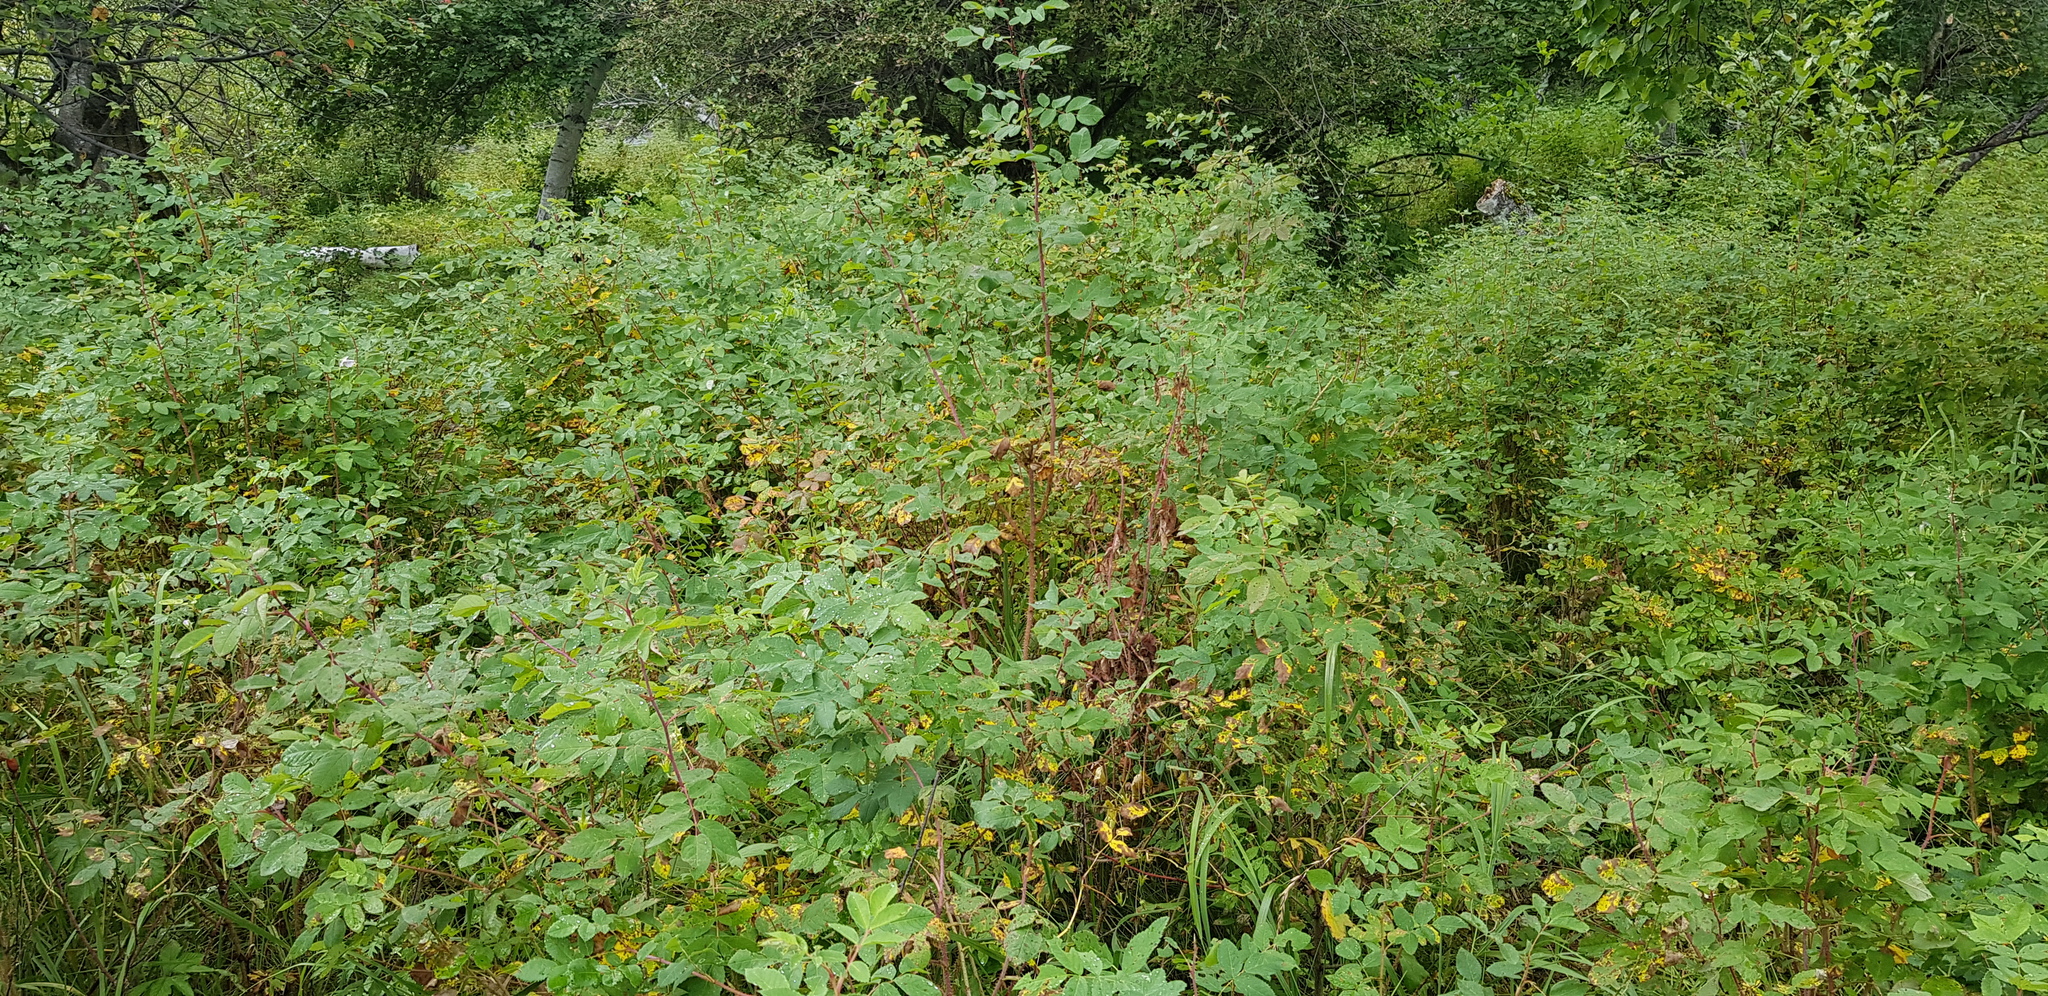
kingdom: Plantae
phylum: Tracheophyta
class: Magnoliopsida
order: Rosales
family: Rosaceae
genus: Rosa
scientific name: Rosa acicularis
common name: Prickly rose
